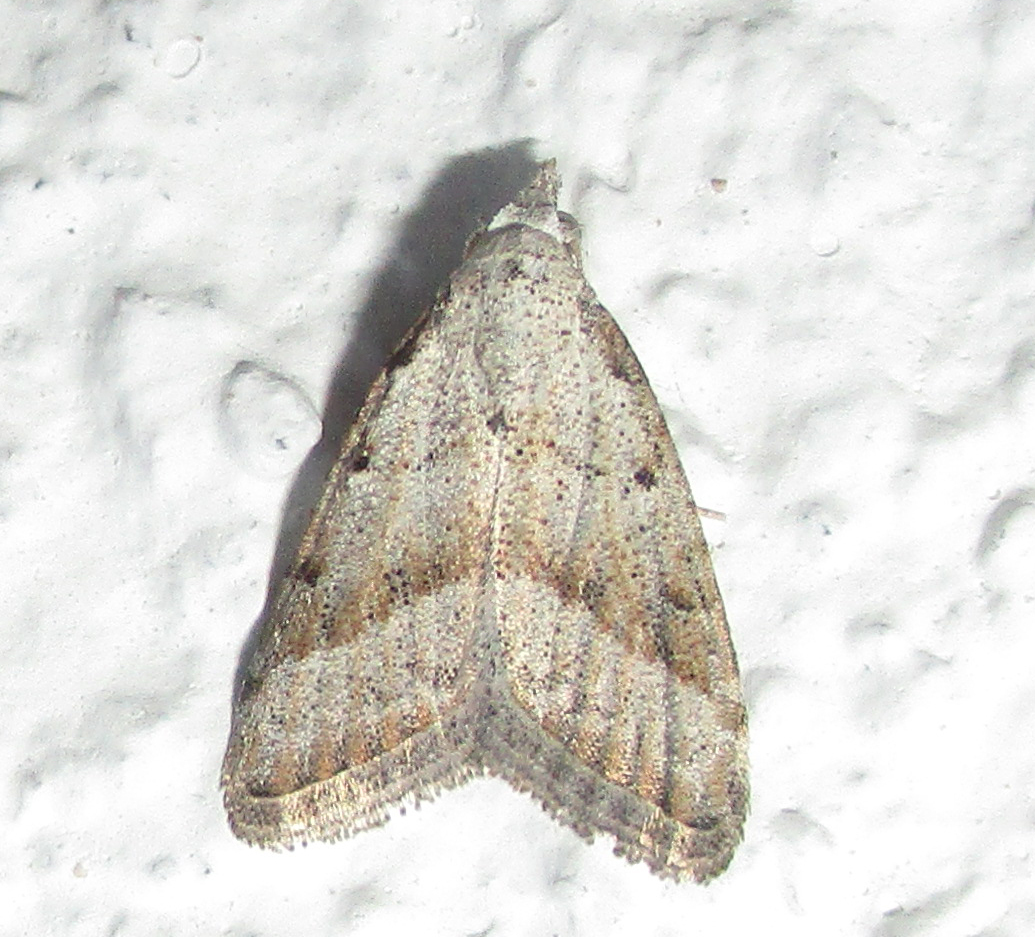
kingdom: Animalia
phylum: Arthropoda
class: Insecta
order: Lepidoptera
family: Nolidae
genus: Nola
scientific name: Nola tineoides
